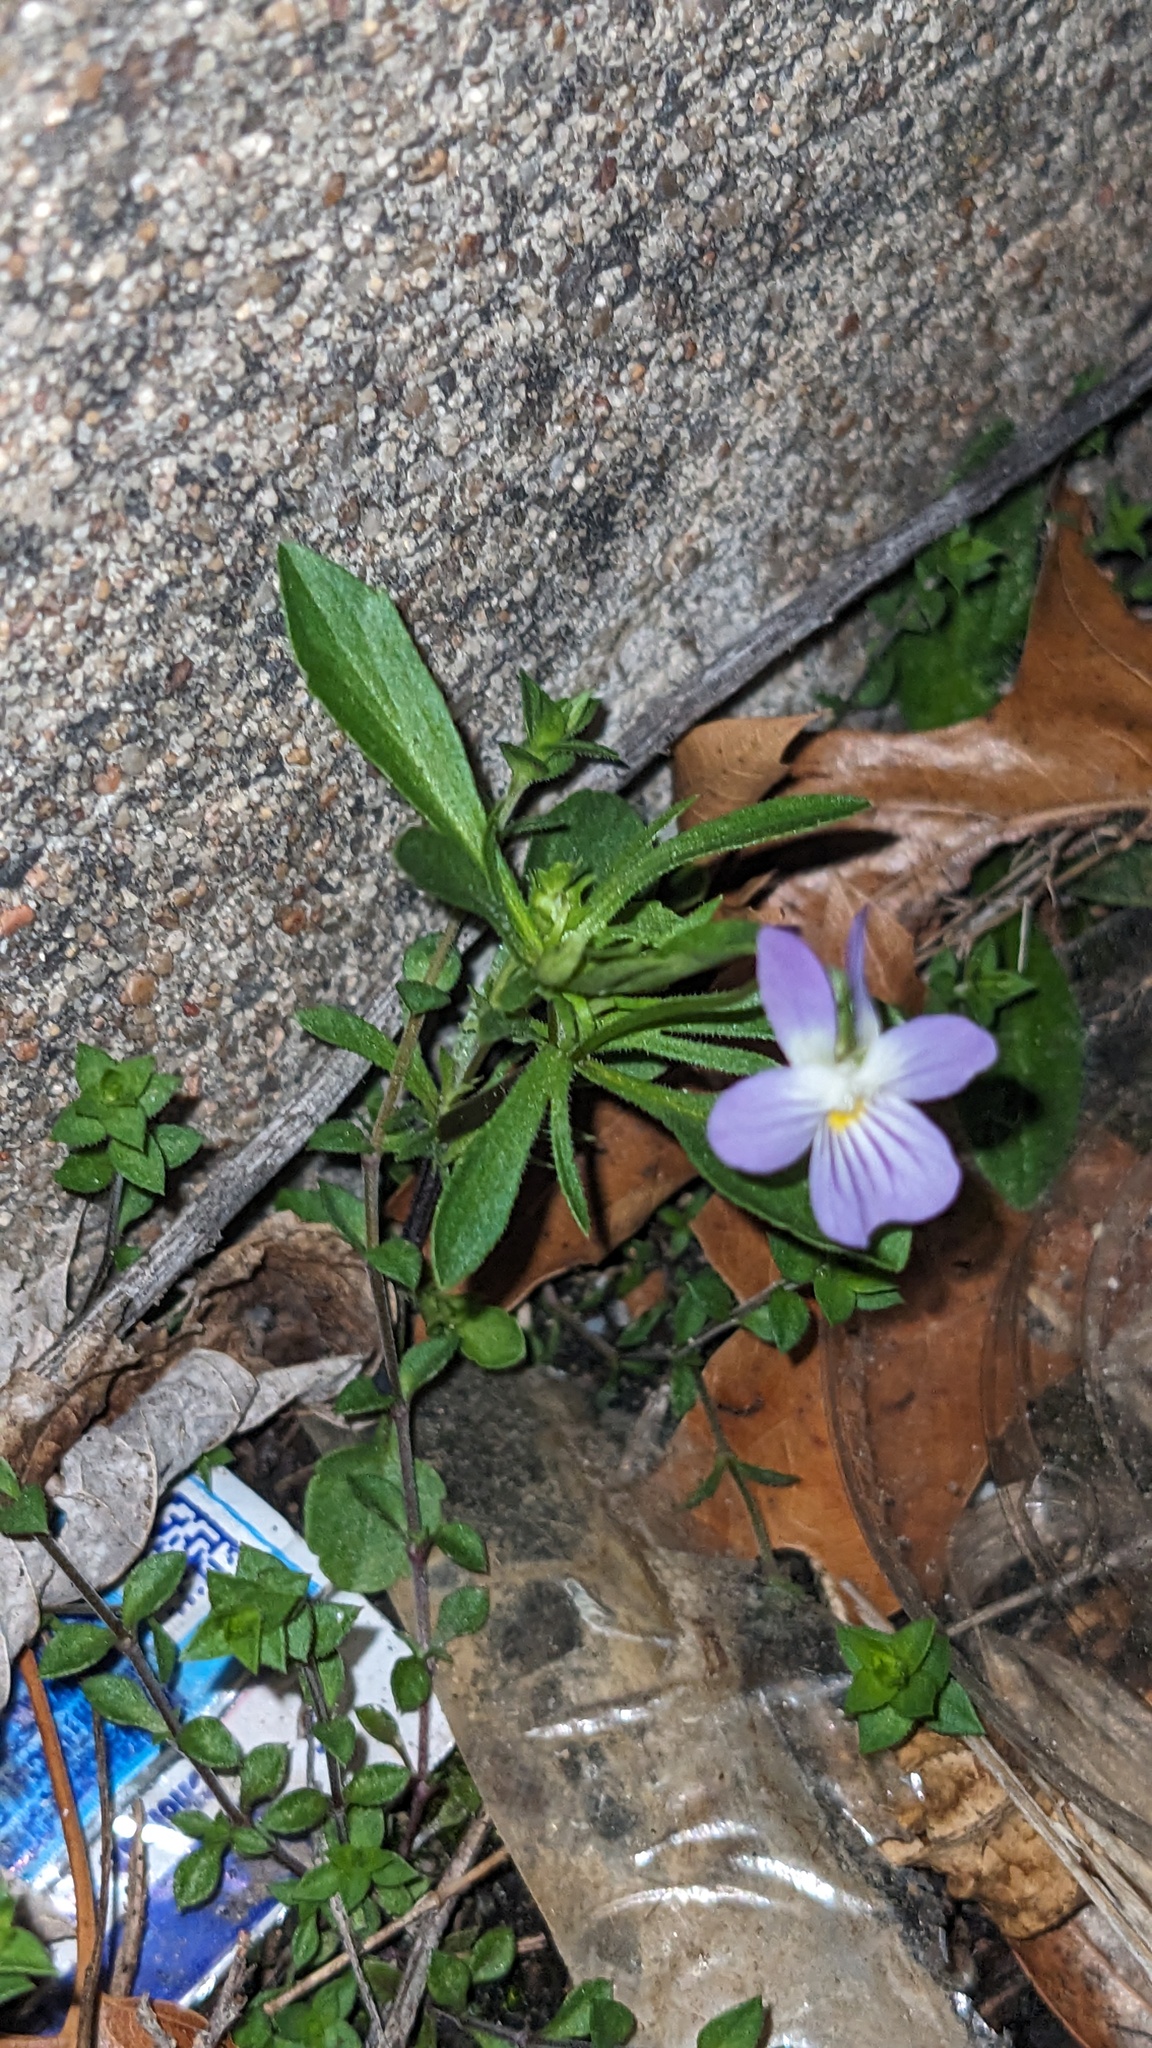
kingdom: Plantae
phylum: Tracheophyta
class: Magnoliopsida
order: Malpighiales
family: Violaceae
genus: Viola
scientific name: Viola rafinesquei
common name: American field pansy
